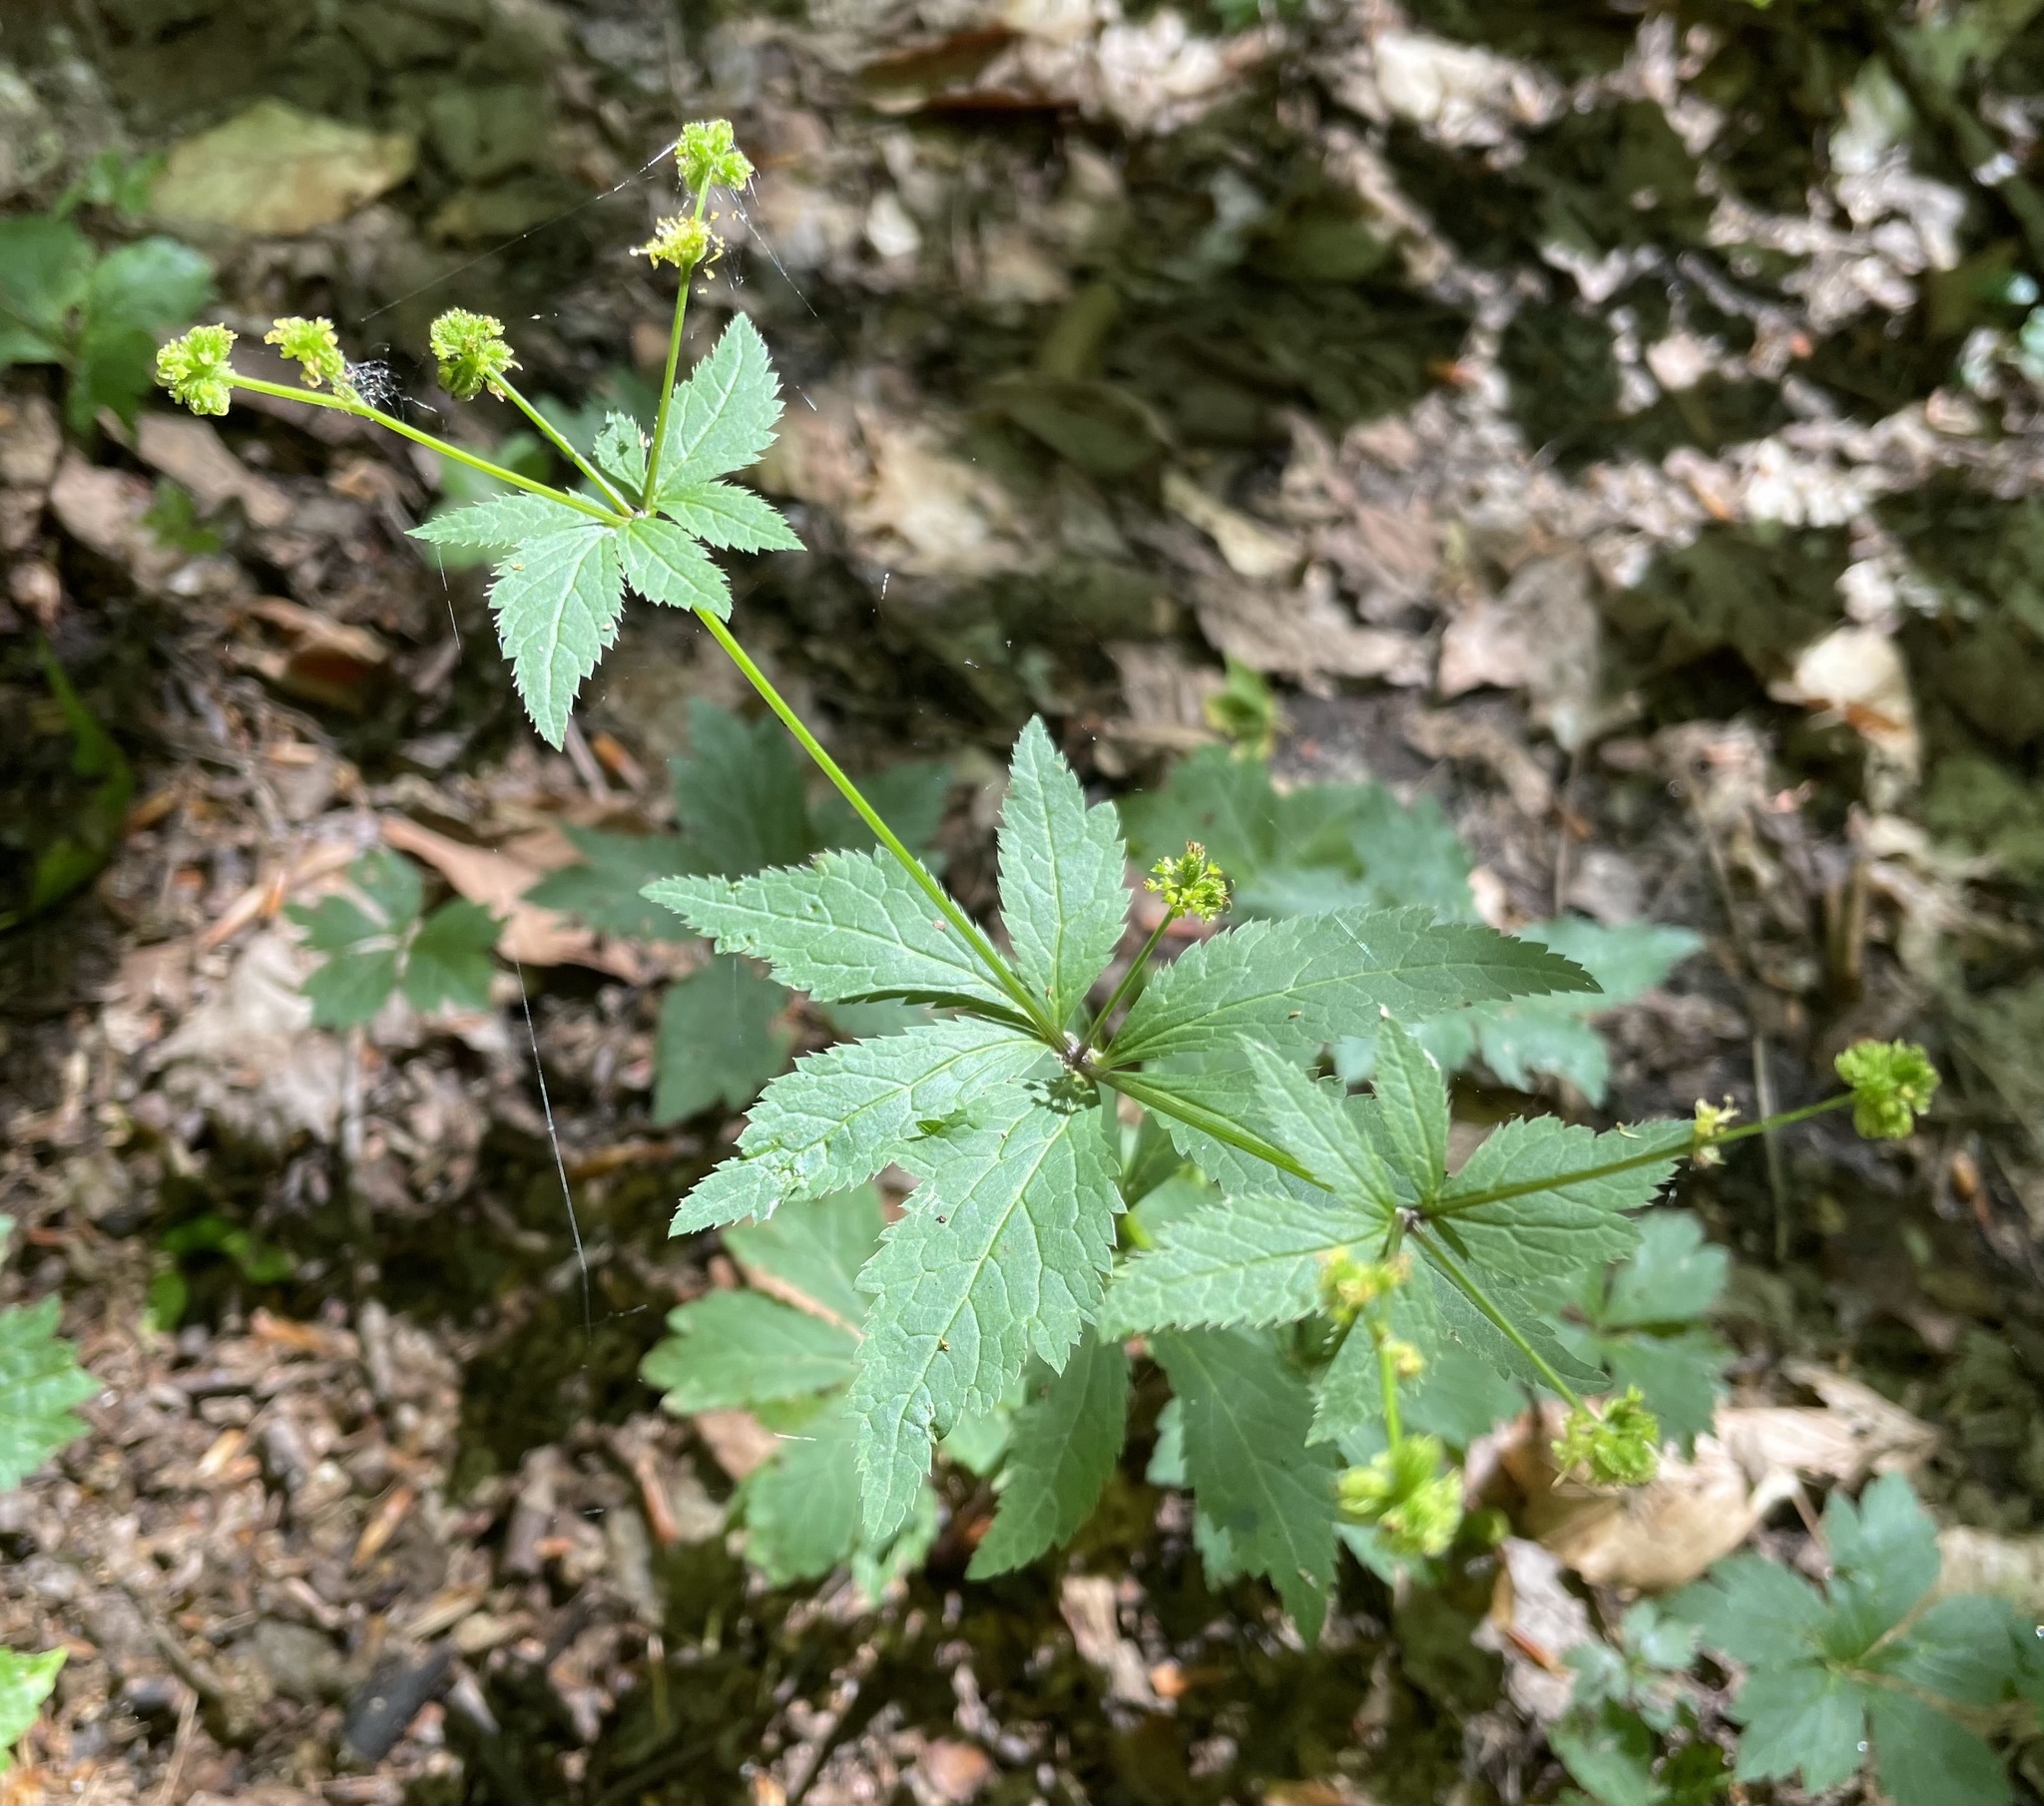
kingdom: Plantae
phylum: Tracheophyta
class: Magnoliopsida
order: Apiales
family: Apiaceae
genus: Sanicula
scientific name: Sanicula odorata
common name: Cluster sanicle
